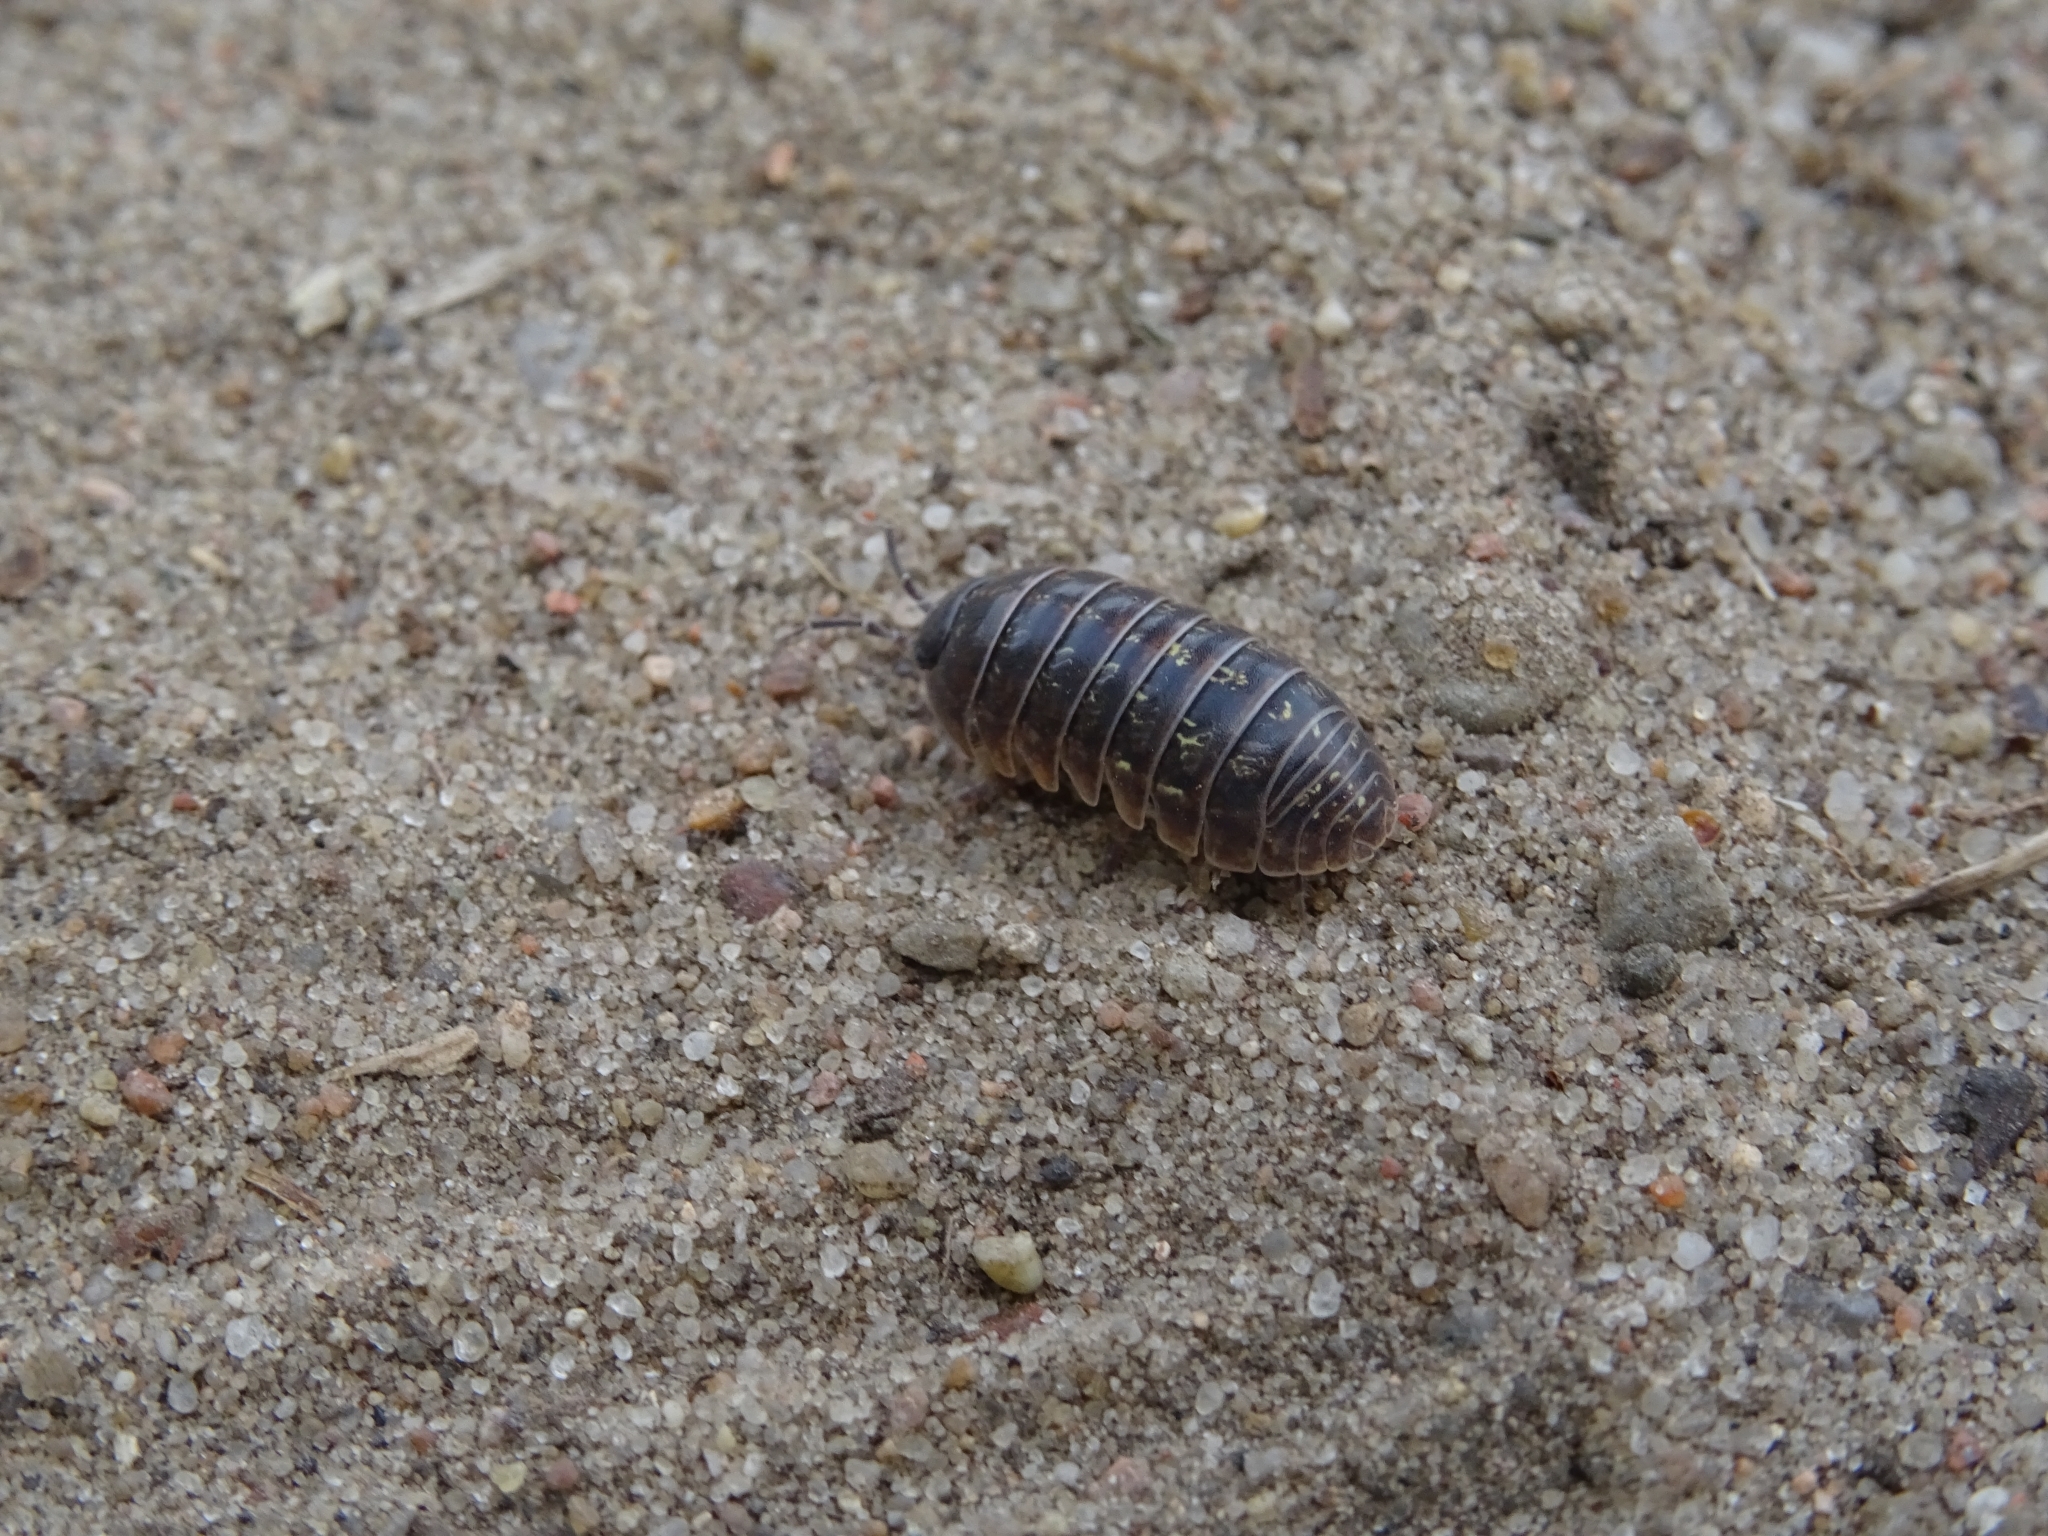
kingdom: Animalia
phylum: Arthropoda
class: Malacostraca
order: Isopoda
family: Armadillidiidae
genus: Armadillidium
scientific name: Armadillidium vulgare
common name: Common pill woodlouse
